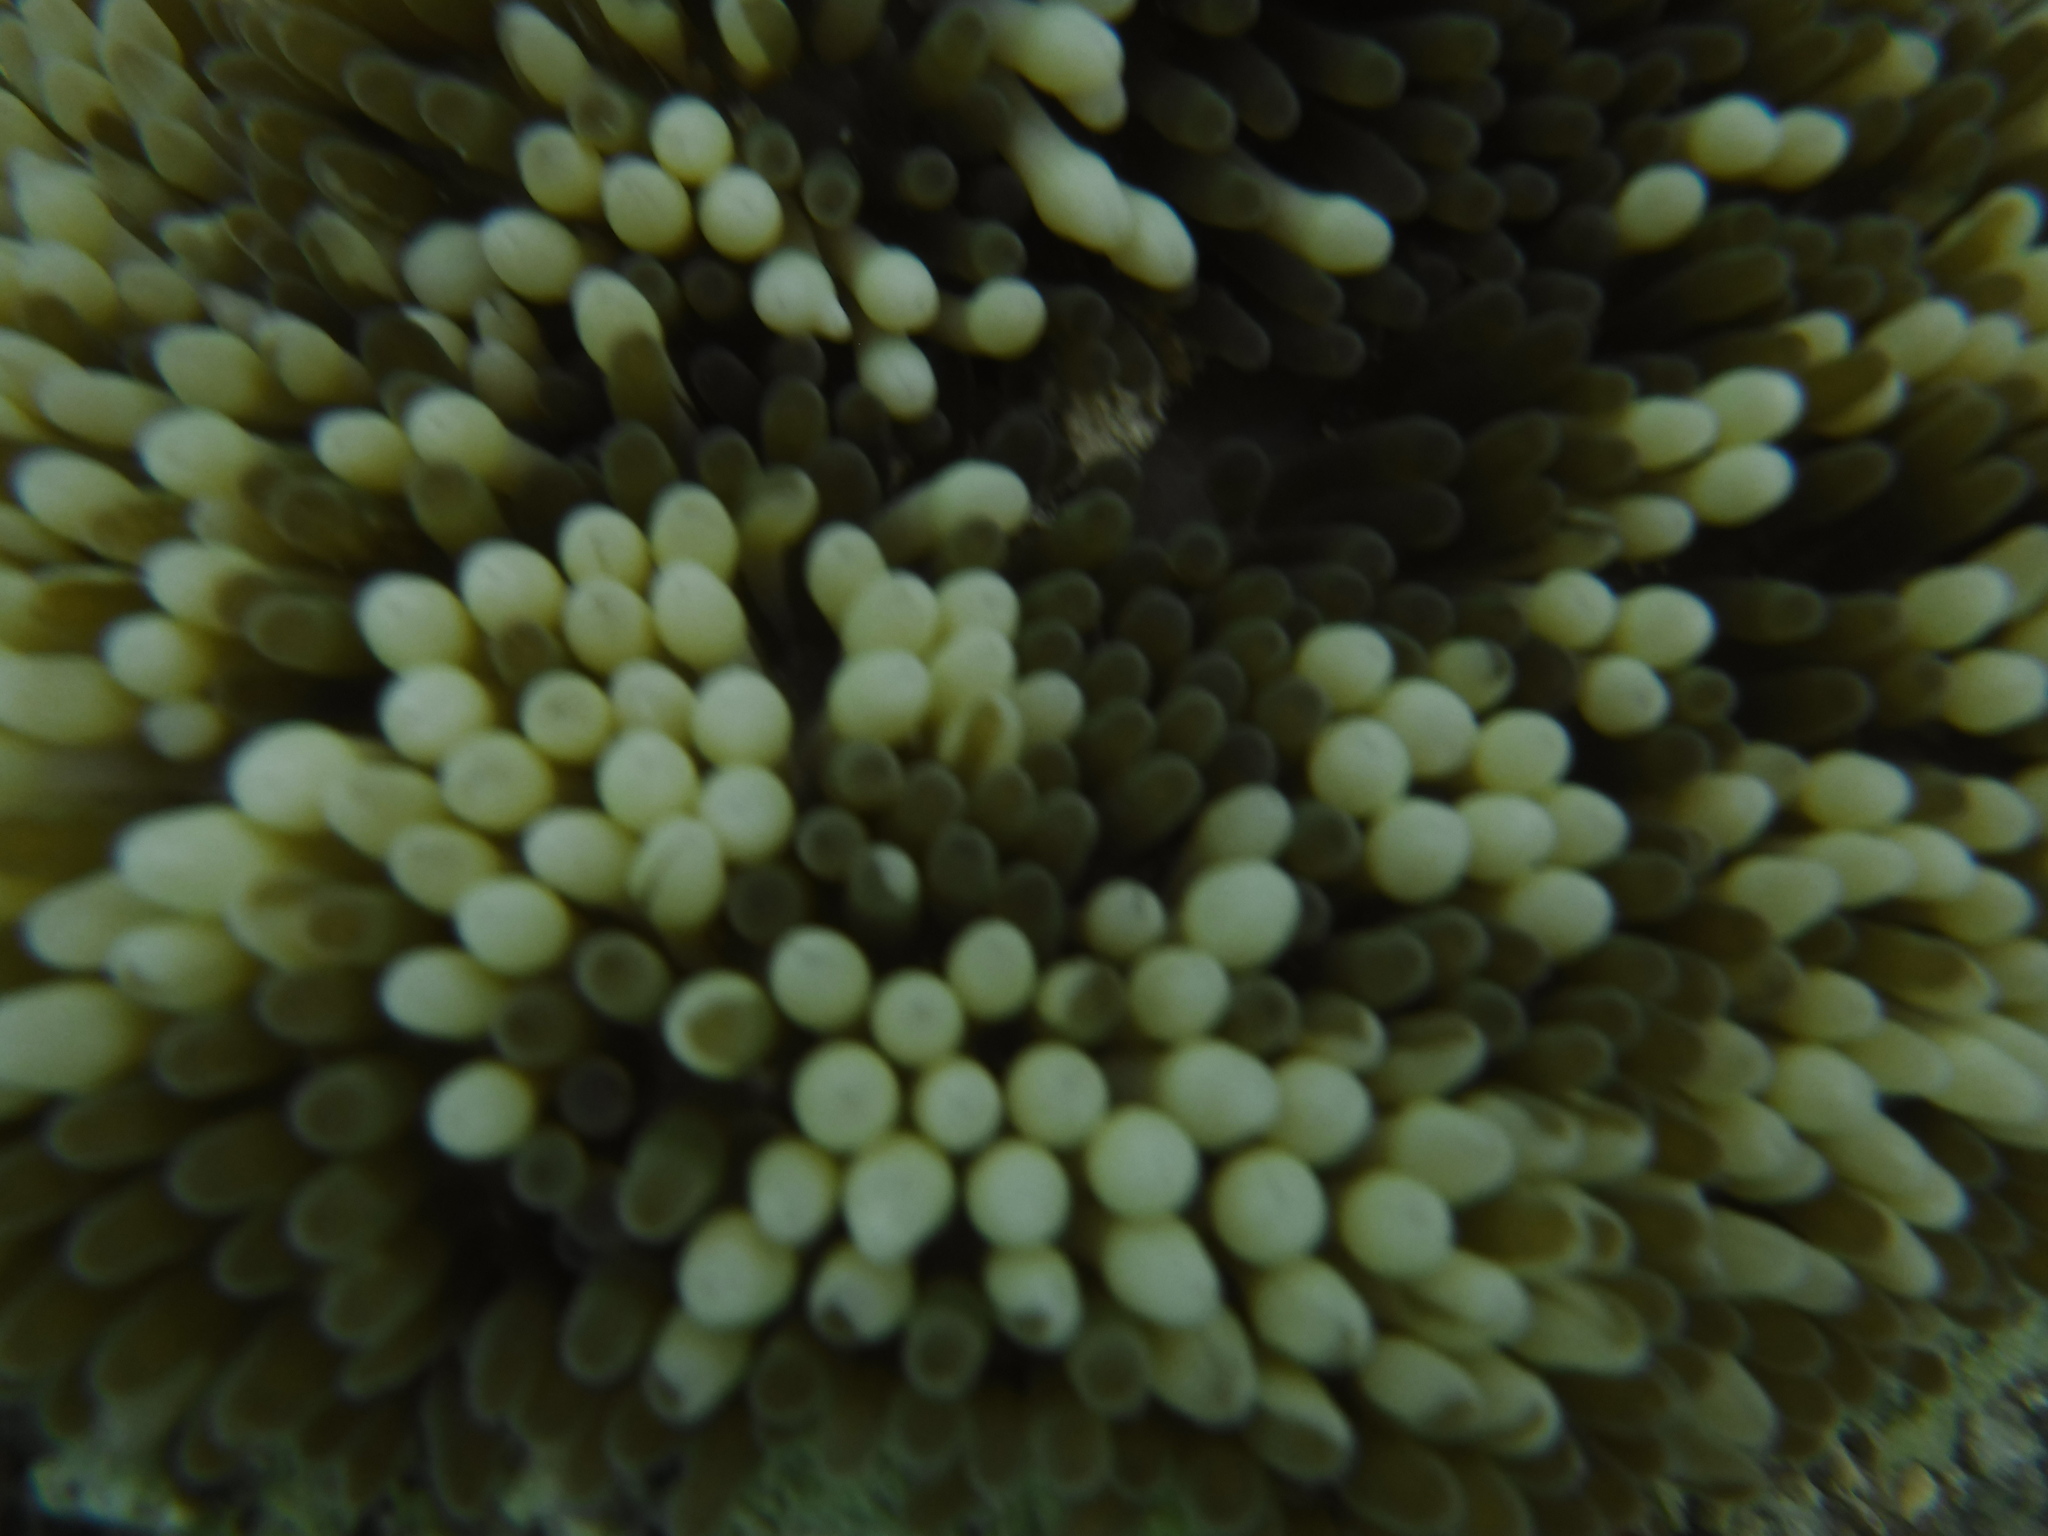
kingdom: Animalia
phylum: Cnidaria
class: Anthozoa
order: Actiniaria
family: Stichodactylidae
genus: Stichodactyla
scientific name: Stichodactyla helianthus
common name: Sun anemone
